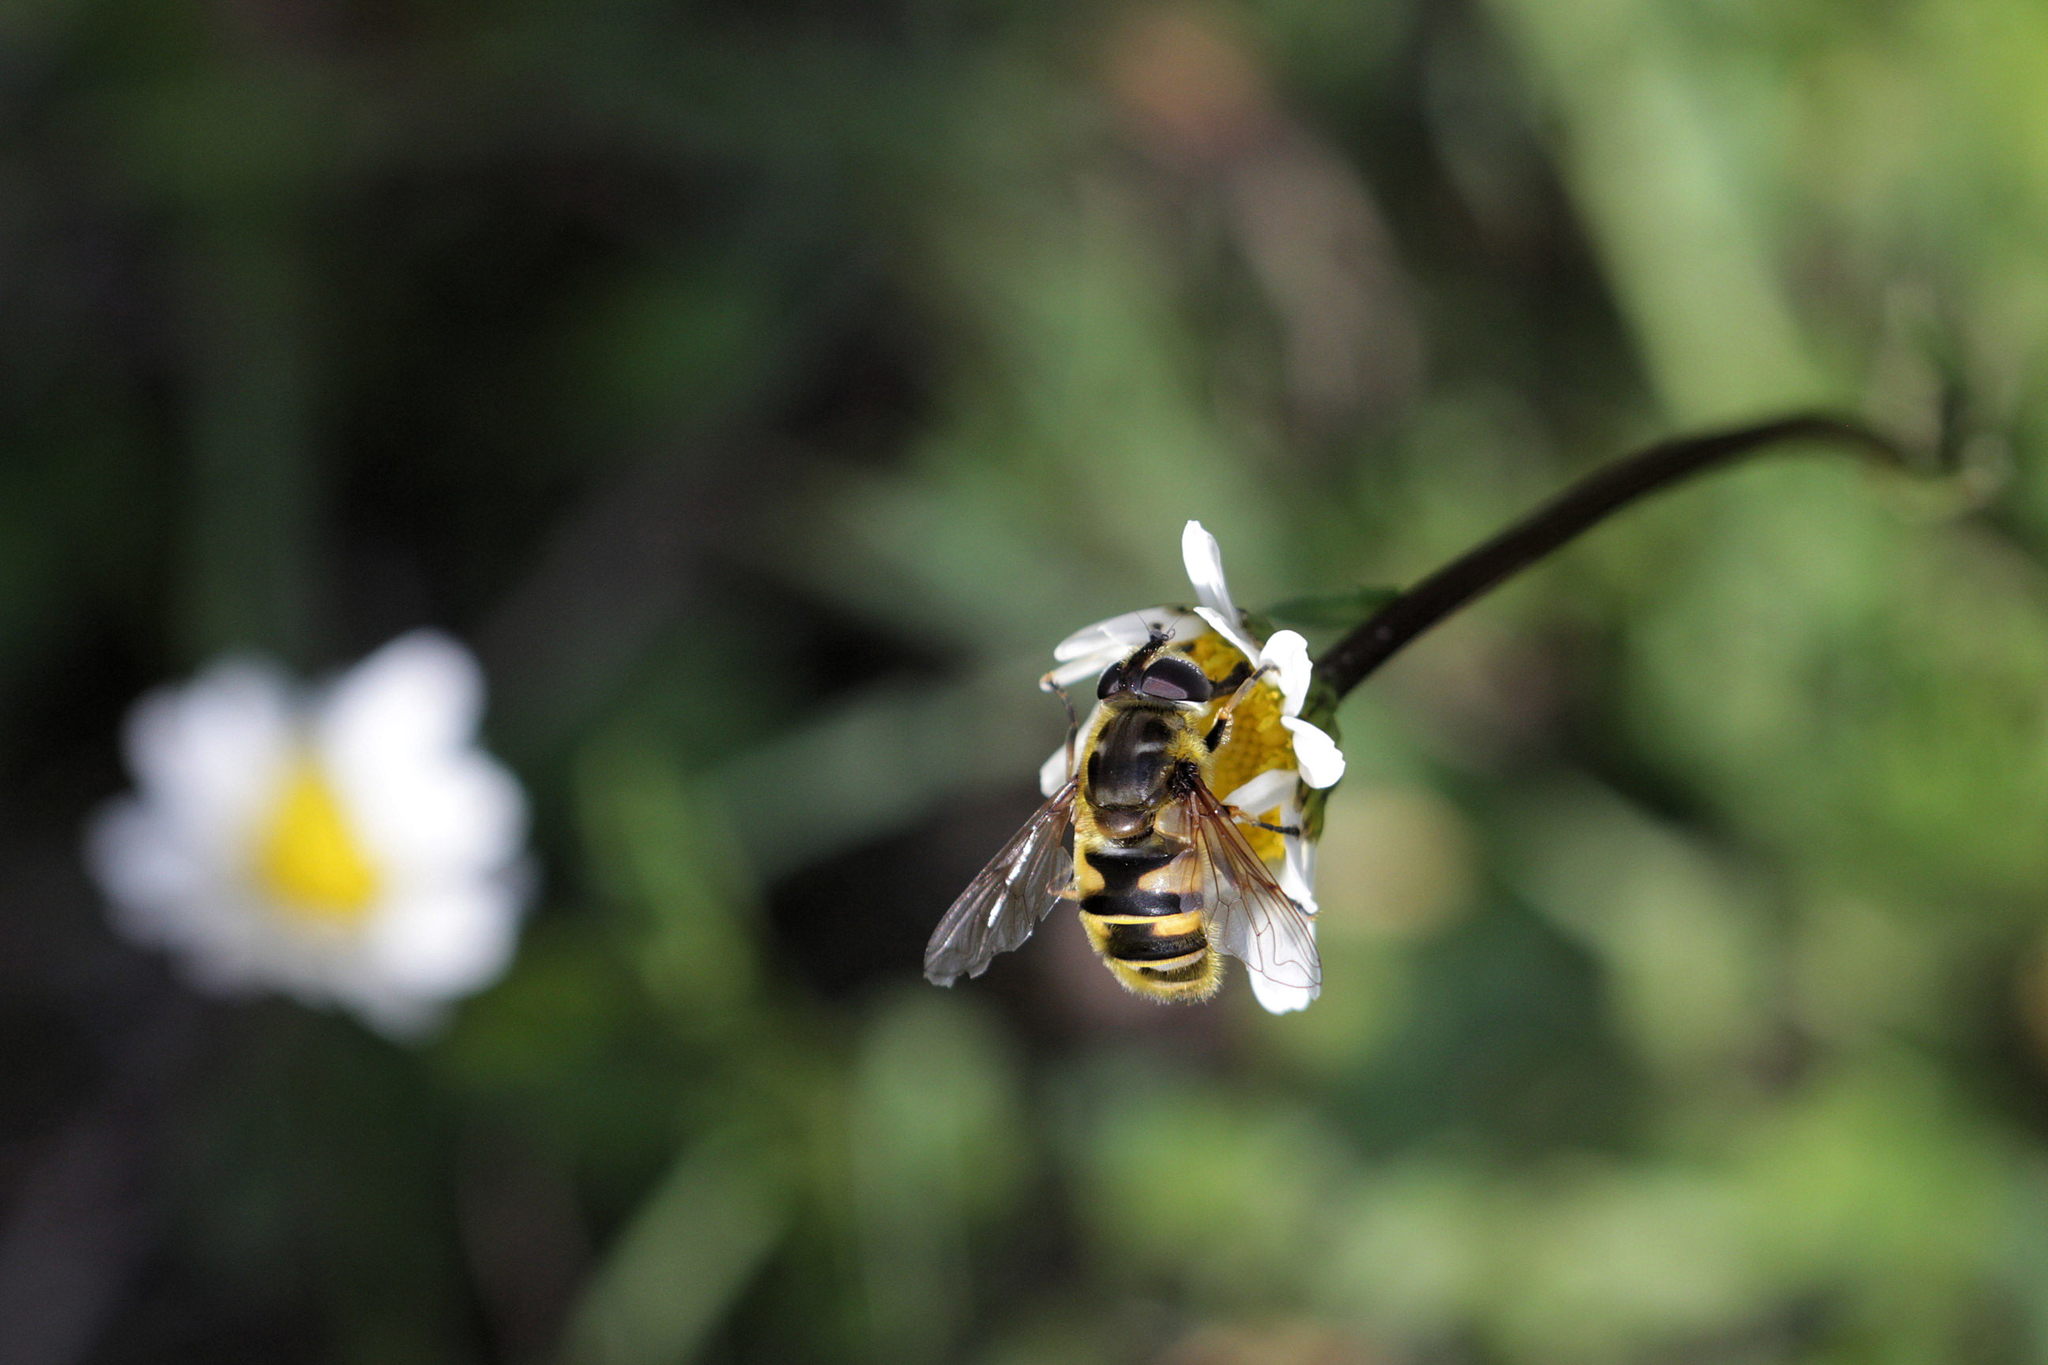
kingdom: Animalia
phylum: Arthropoda
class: Insecta
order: Diptera
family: Syrphidae
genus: Myathropa
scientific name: Myathropa florea
